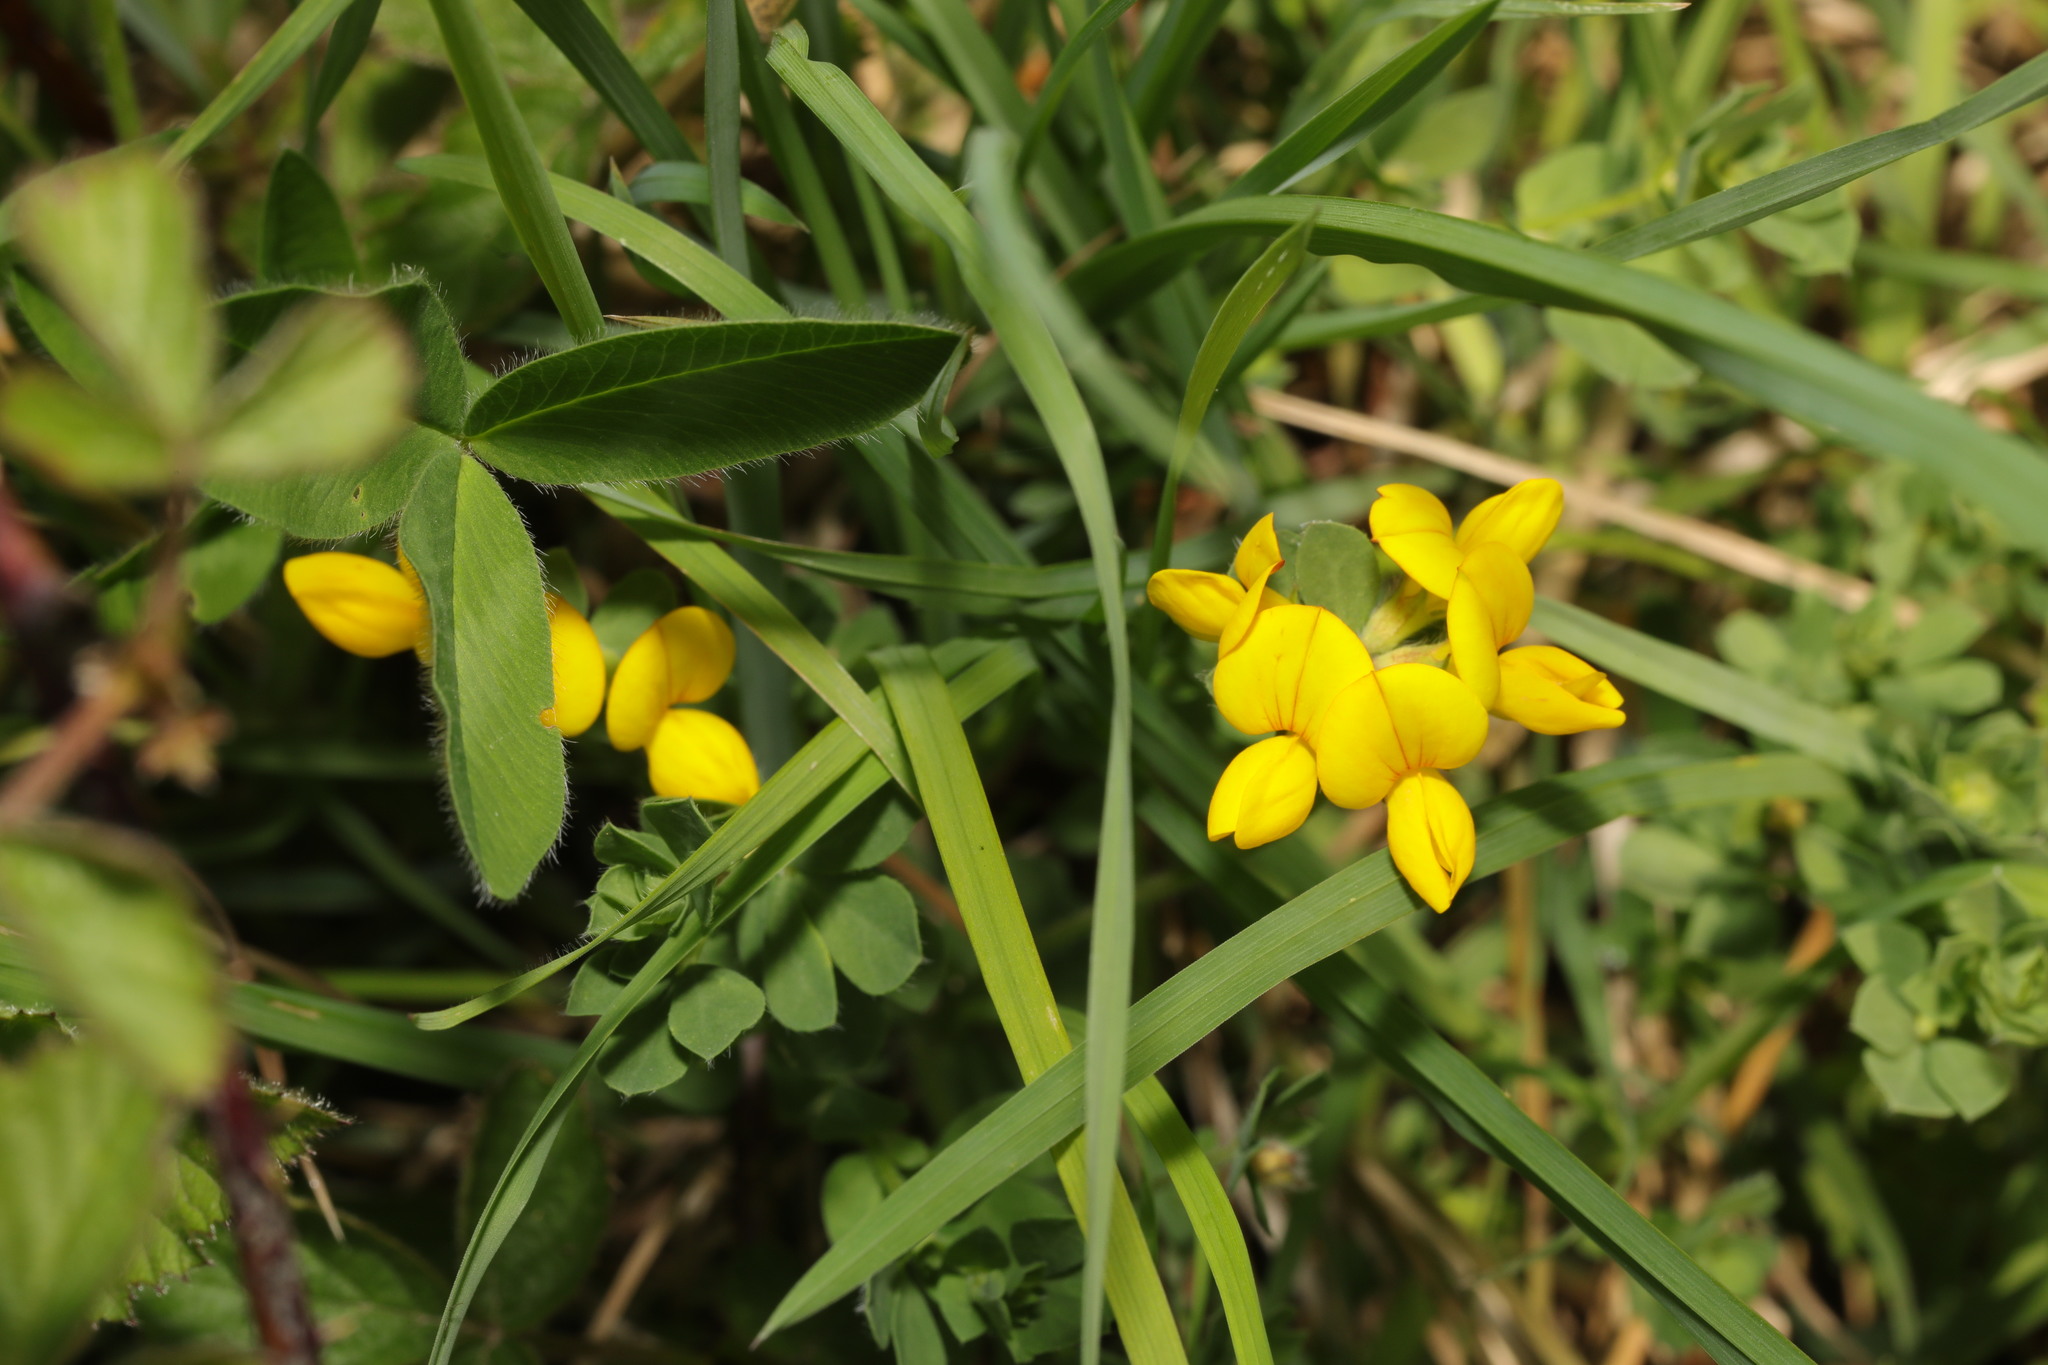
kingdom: Plantae
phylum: Tracheophyta
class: Magnoliopsida
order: Fabales
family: Fabaceae
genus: Lotus
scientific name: Lotus corniculatus
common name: Common bird's-foot-trefoil
